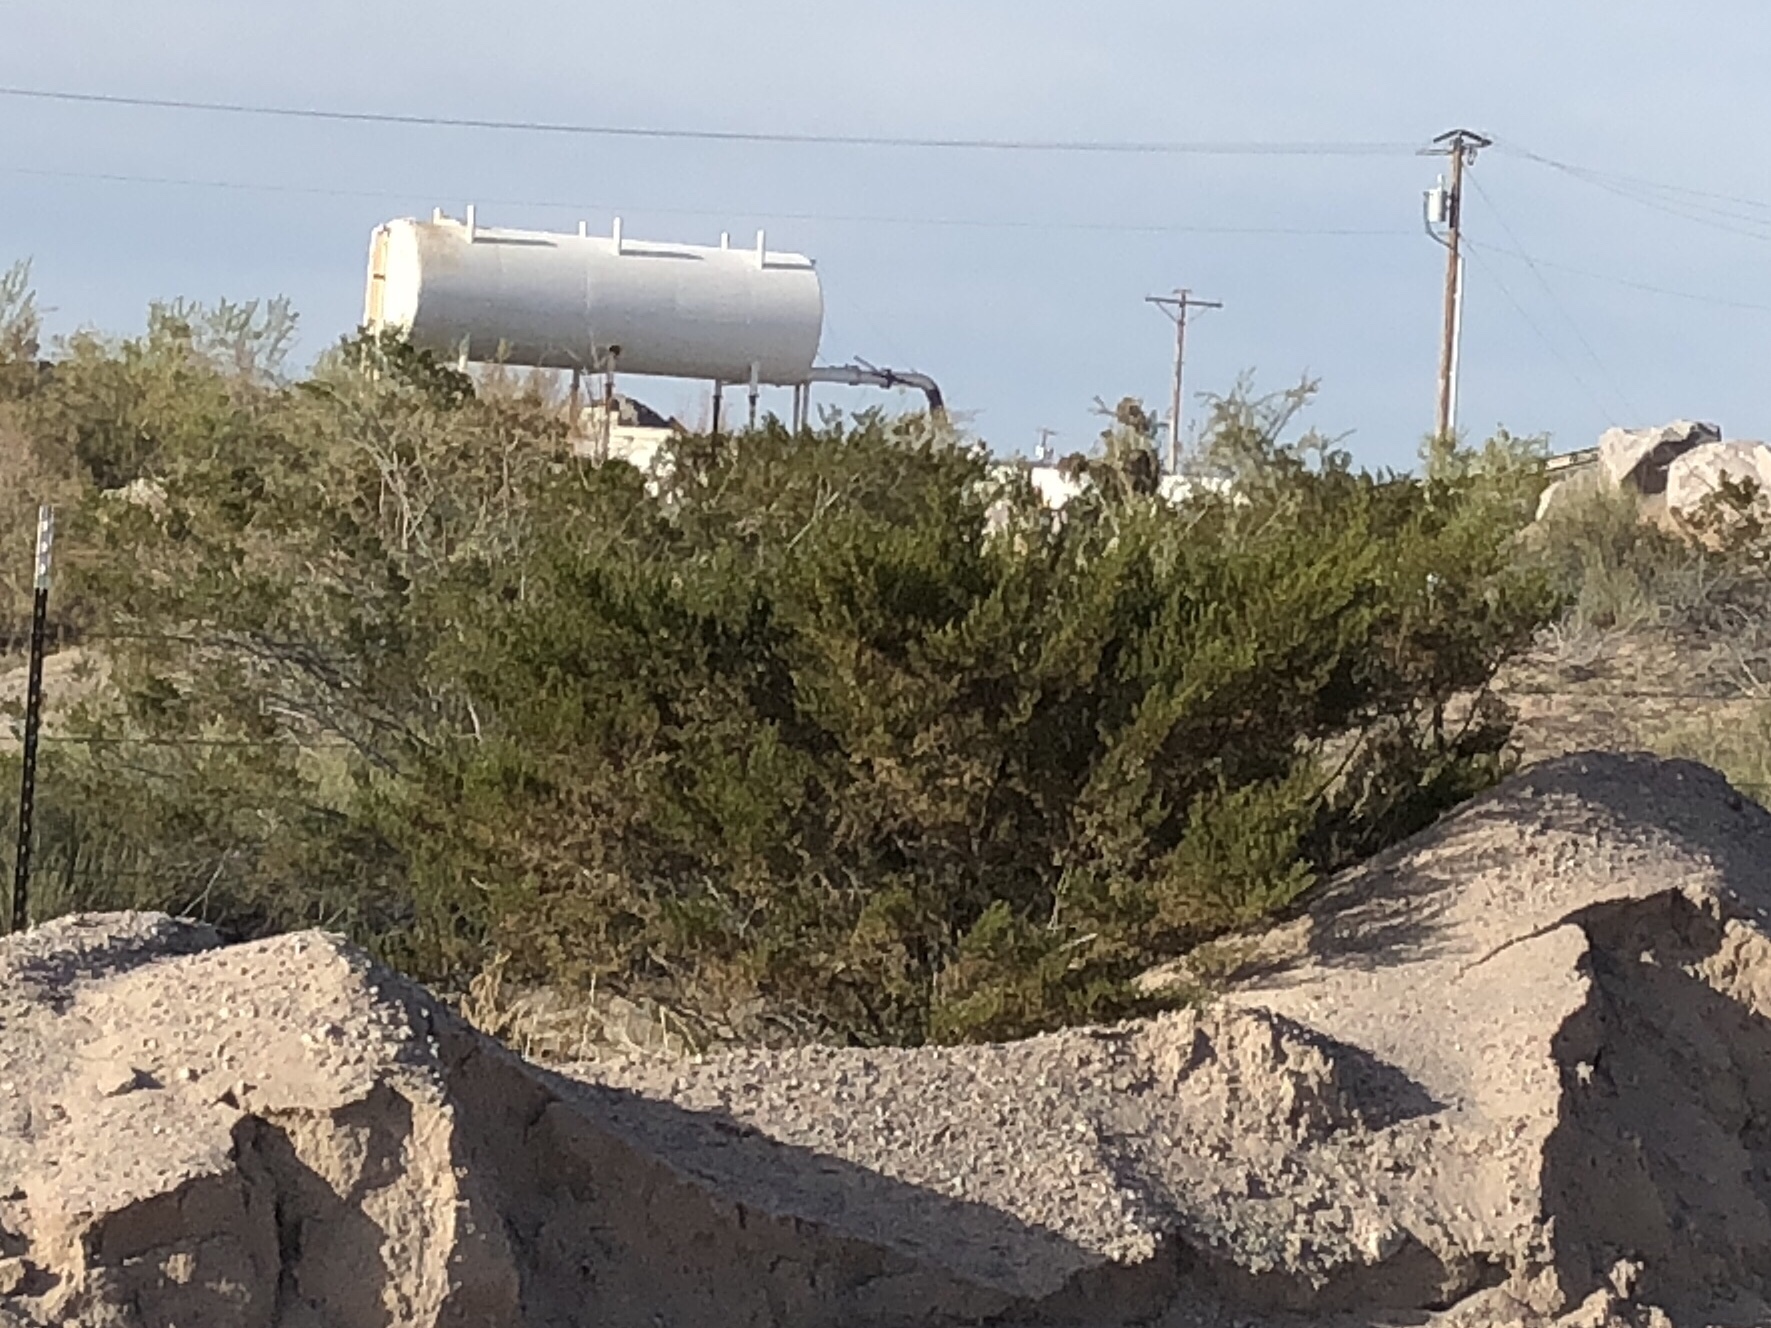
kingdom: Plantae
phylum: Tracheophyta
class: Magnoliopsida
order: Zygophyllales
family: Zygophyllaceae
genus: Larrea
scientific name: Larrea tridentata
